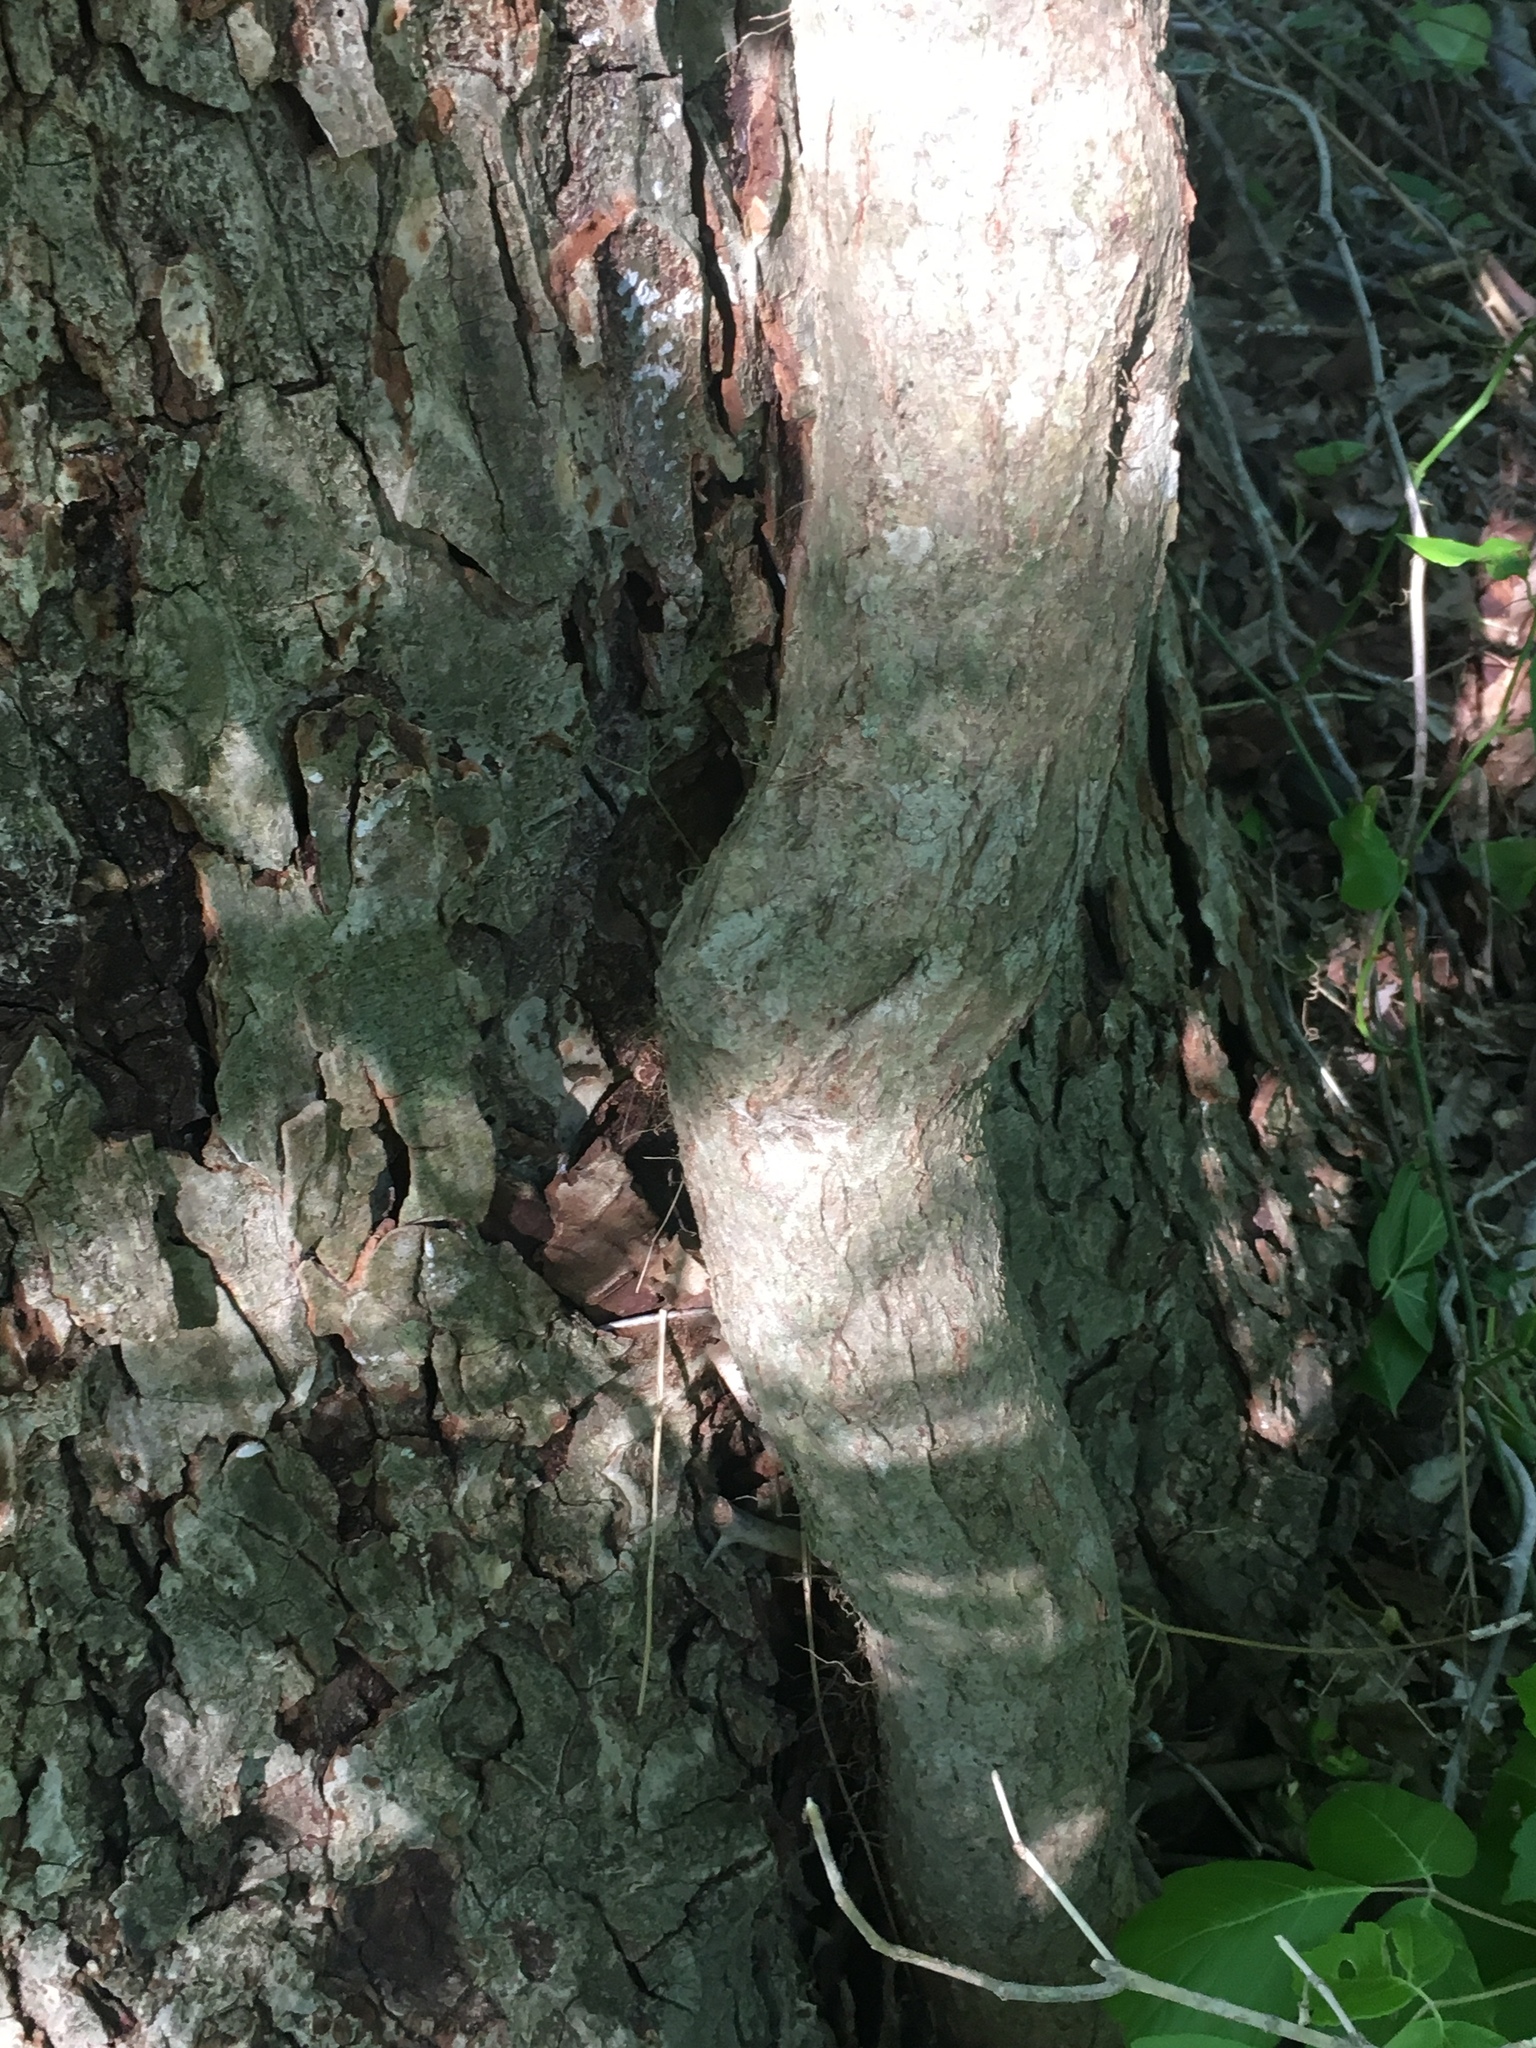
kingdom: Plantae
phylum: Tracheophyta
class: Magnoliopsida
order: Sapindales
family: Sapindaceae
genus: Acer
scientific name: Acer negundo
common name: Ashleaf maple
